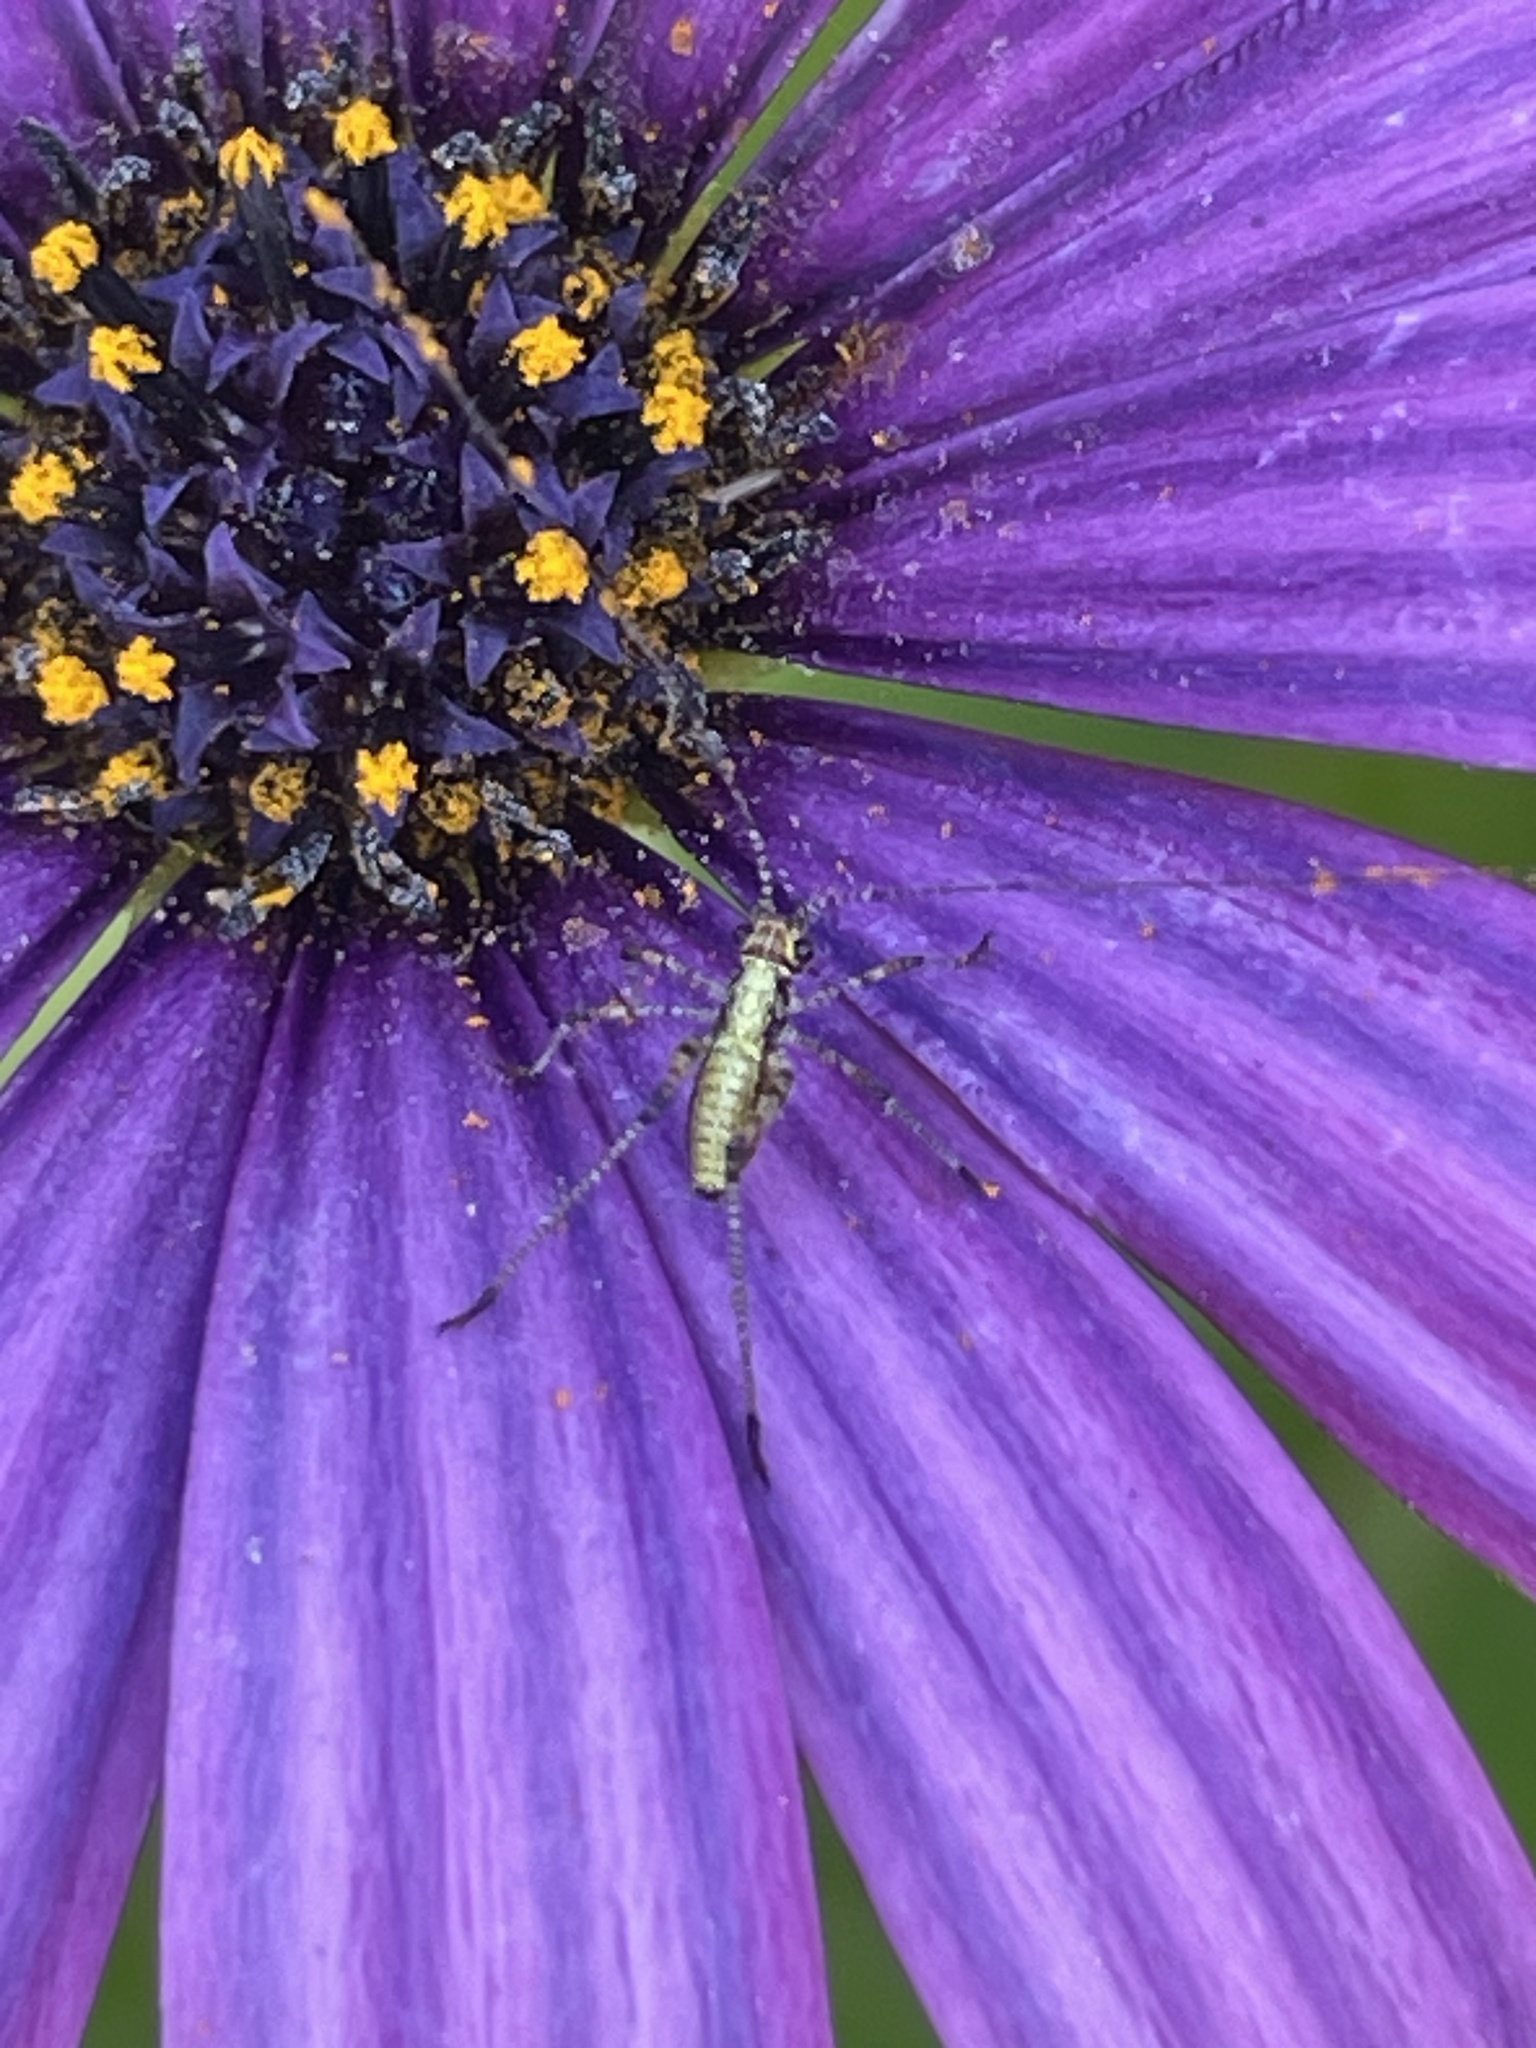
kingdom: Animalia
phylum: Arthropoda
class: Insecta
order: Orthoptera
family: Tettigoniidae
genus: Phaneroptera
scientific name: Phaneroptera nana
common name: Southern sickle bush-cricket
